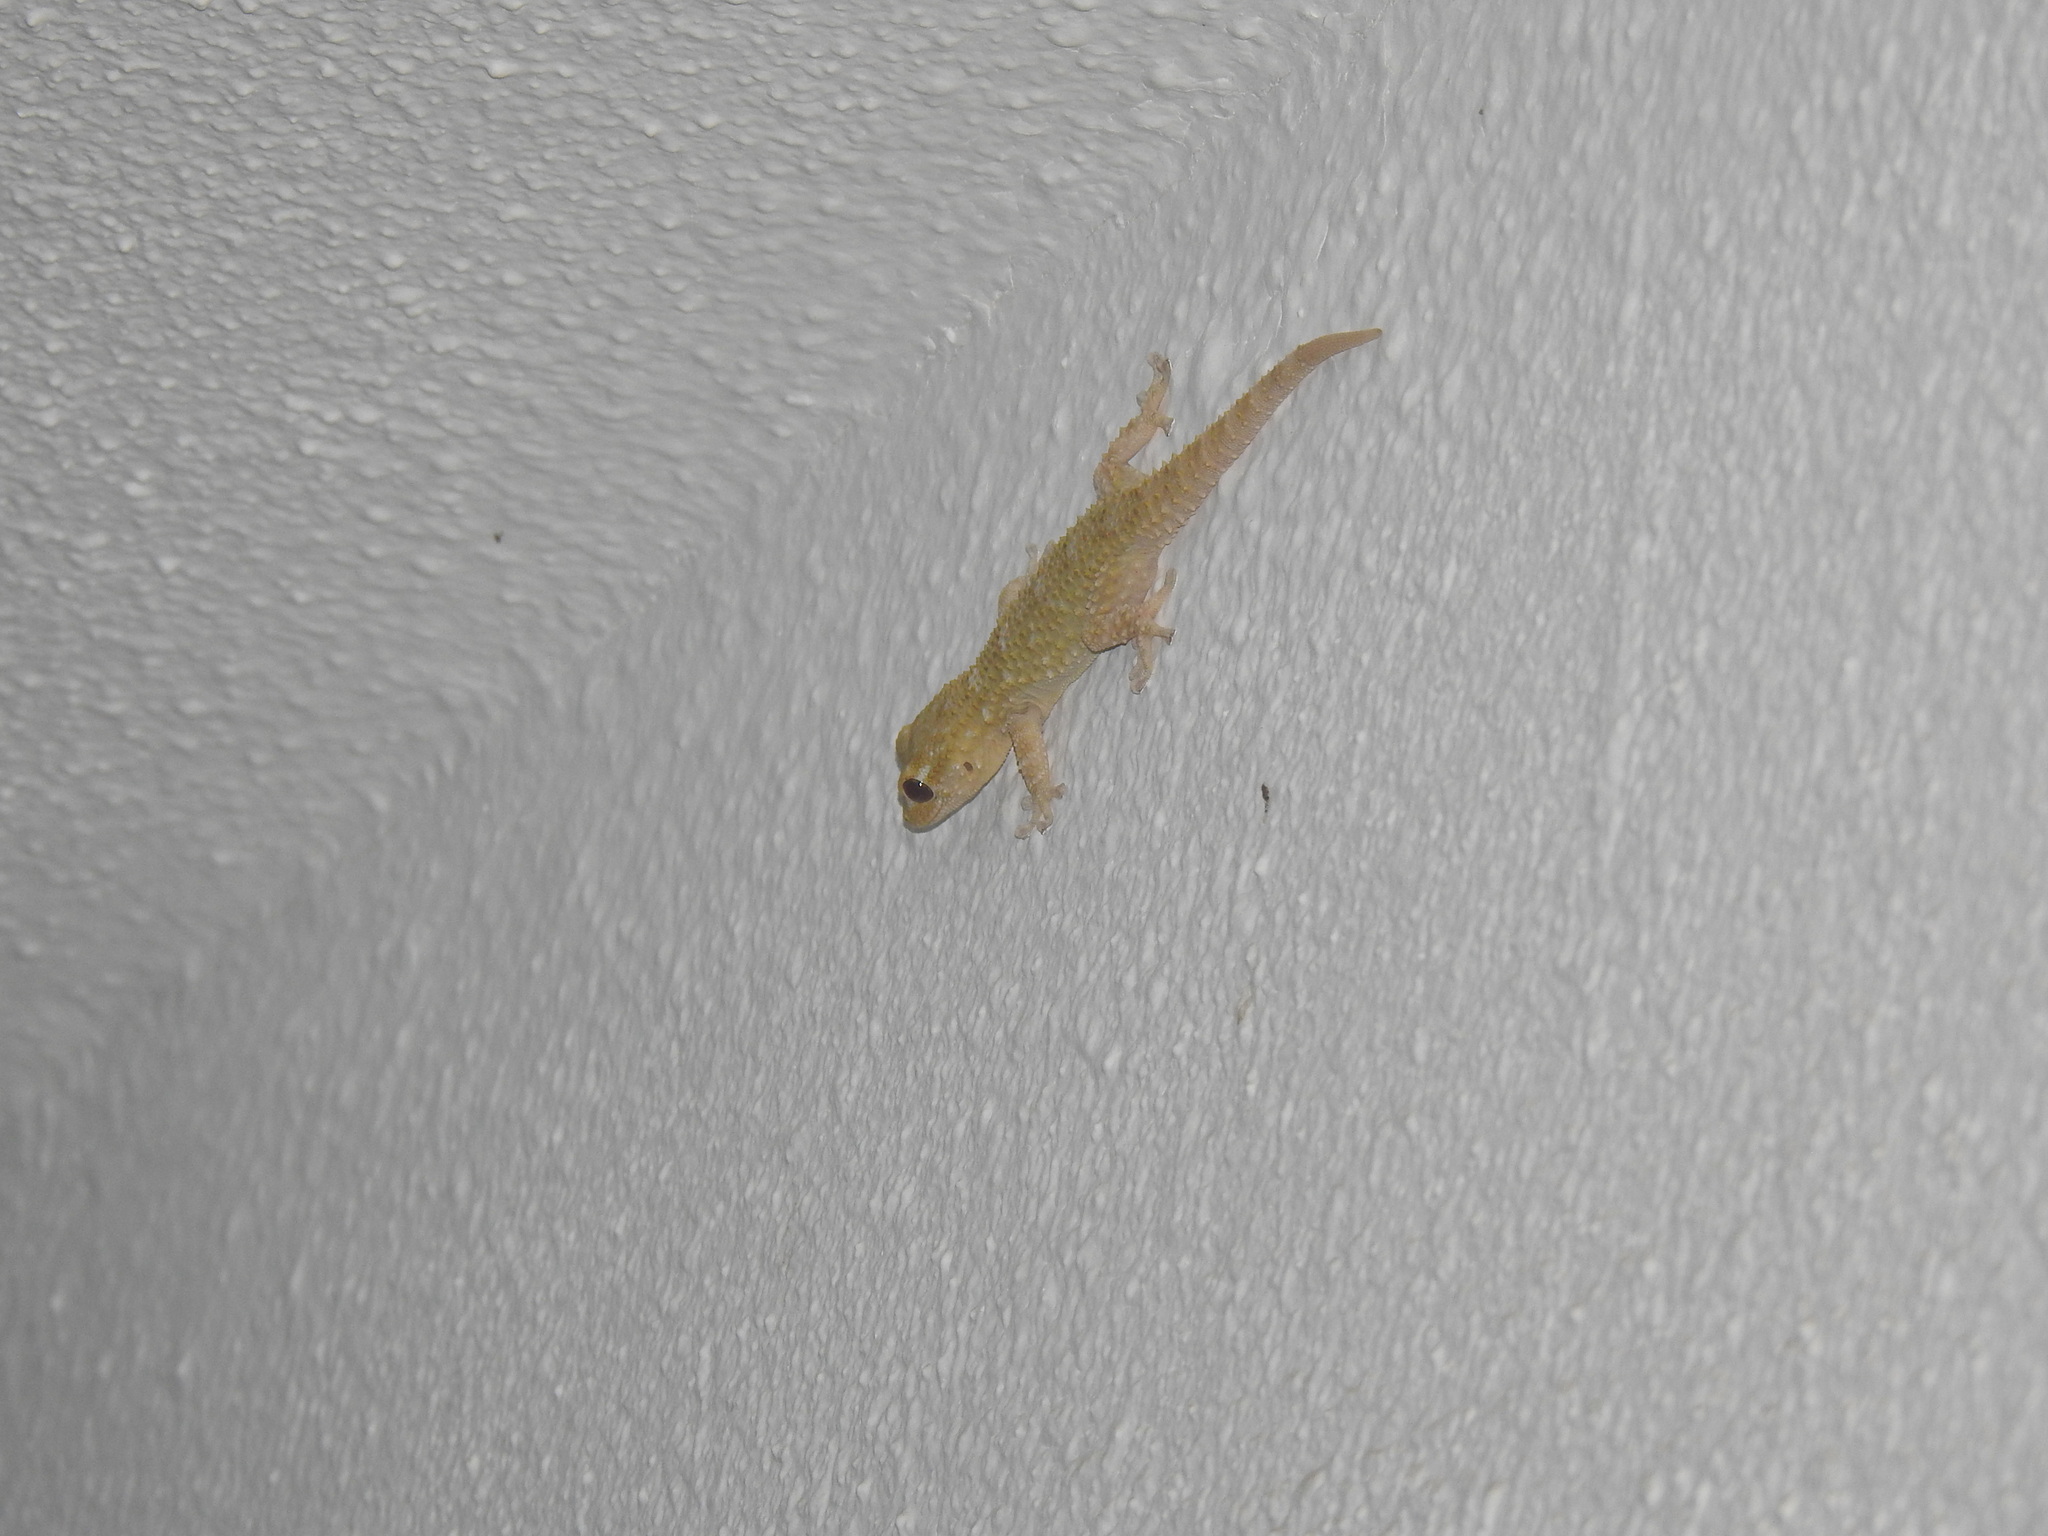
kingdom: Animalia
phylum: Chordata
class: Squamata
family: Phyllodactylidae
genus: Tarentola
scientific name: Tarentola mauritanica
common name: Moorish gecko
